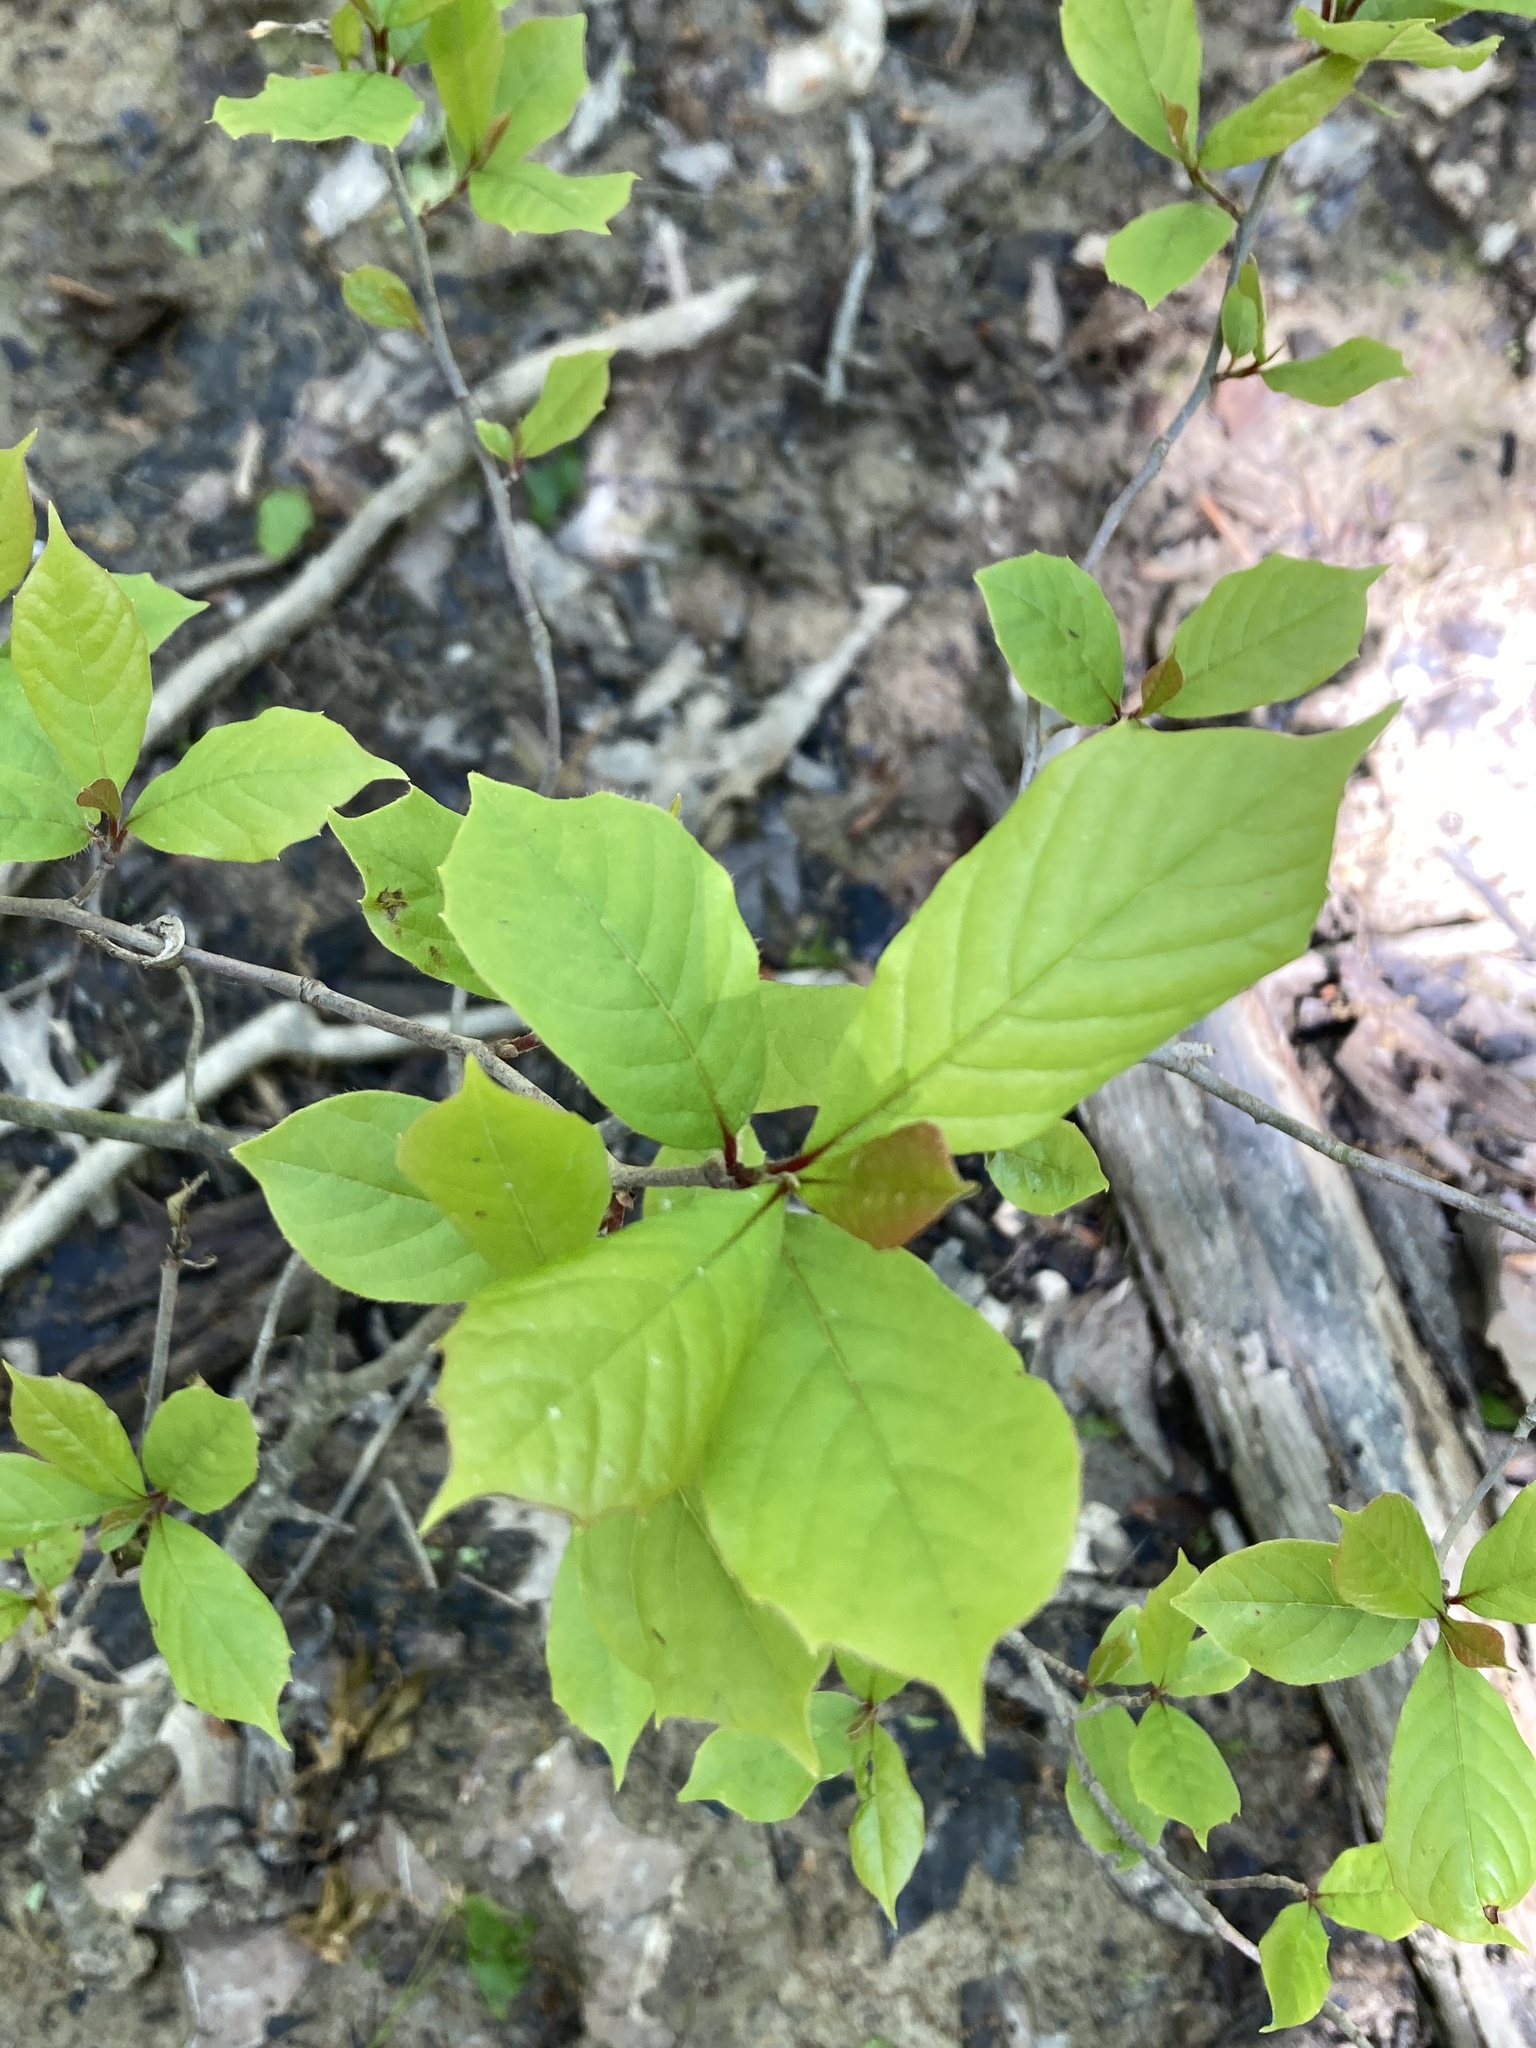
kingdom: Plantae
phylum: Tracheophyta
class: Magnoliopsida
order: Cornales
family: Nyssaceae
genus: Nyssa
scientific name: Nyssa sylvatica
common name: Black tupelo
